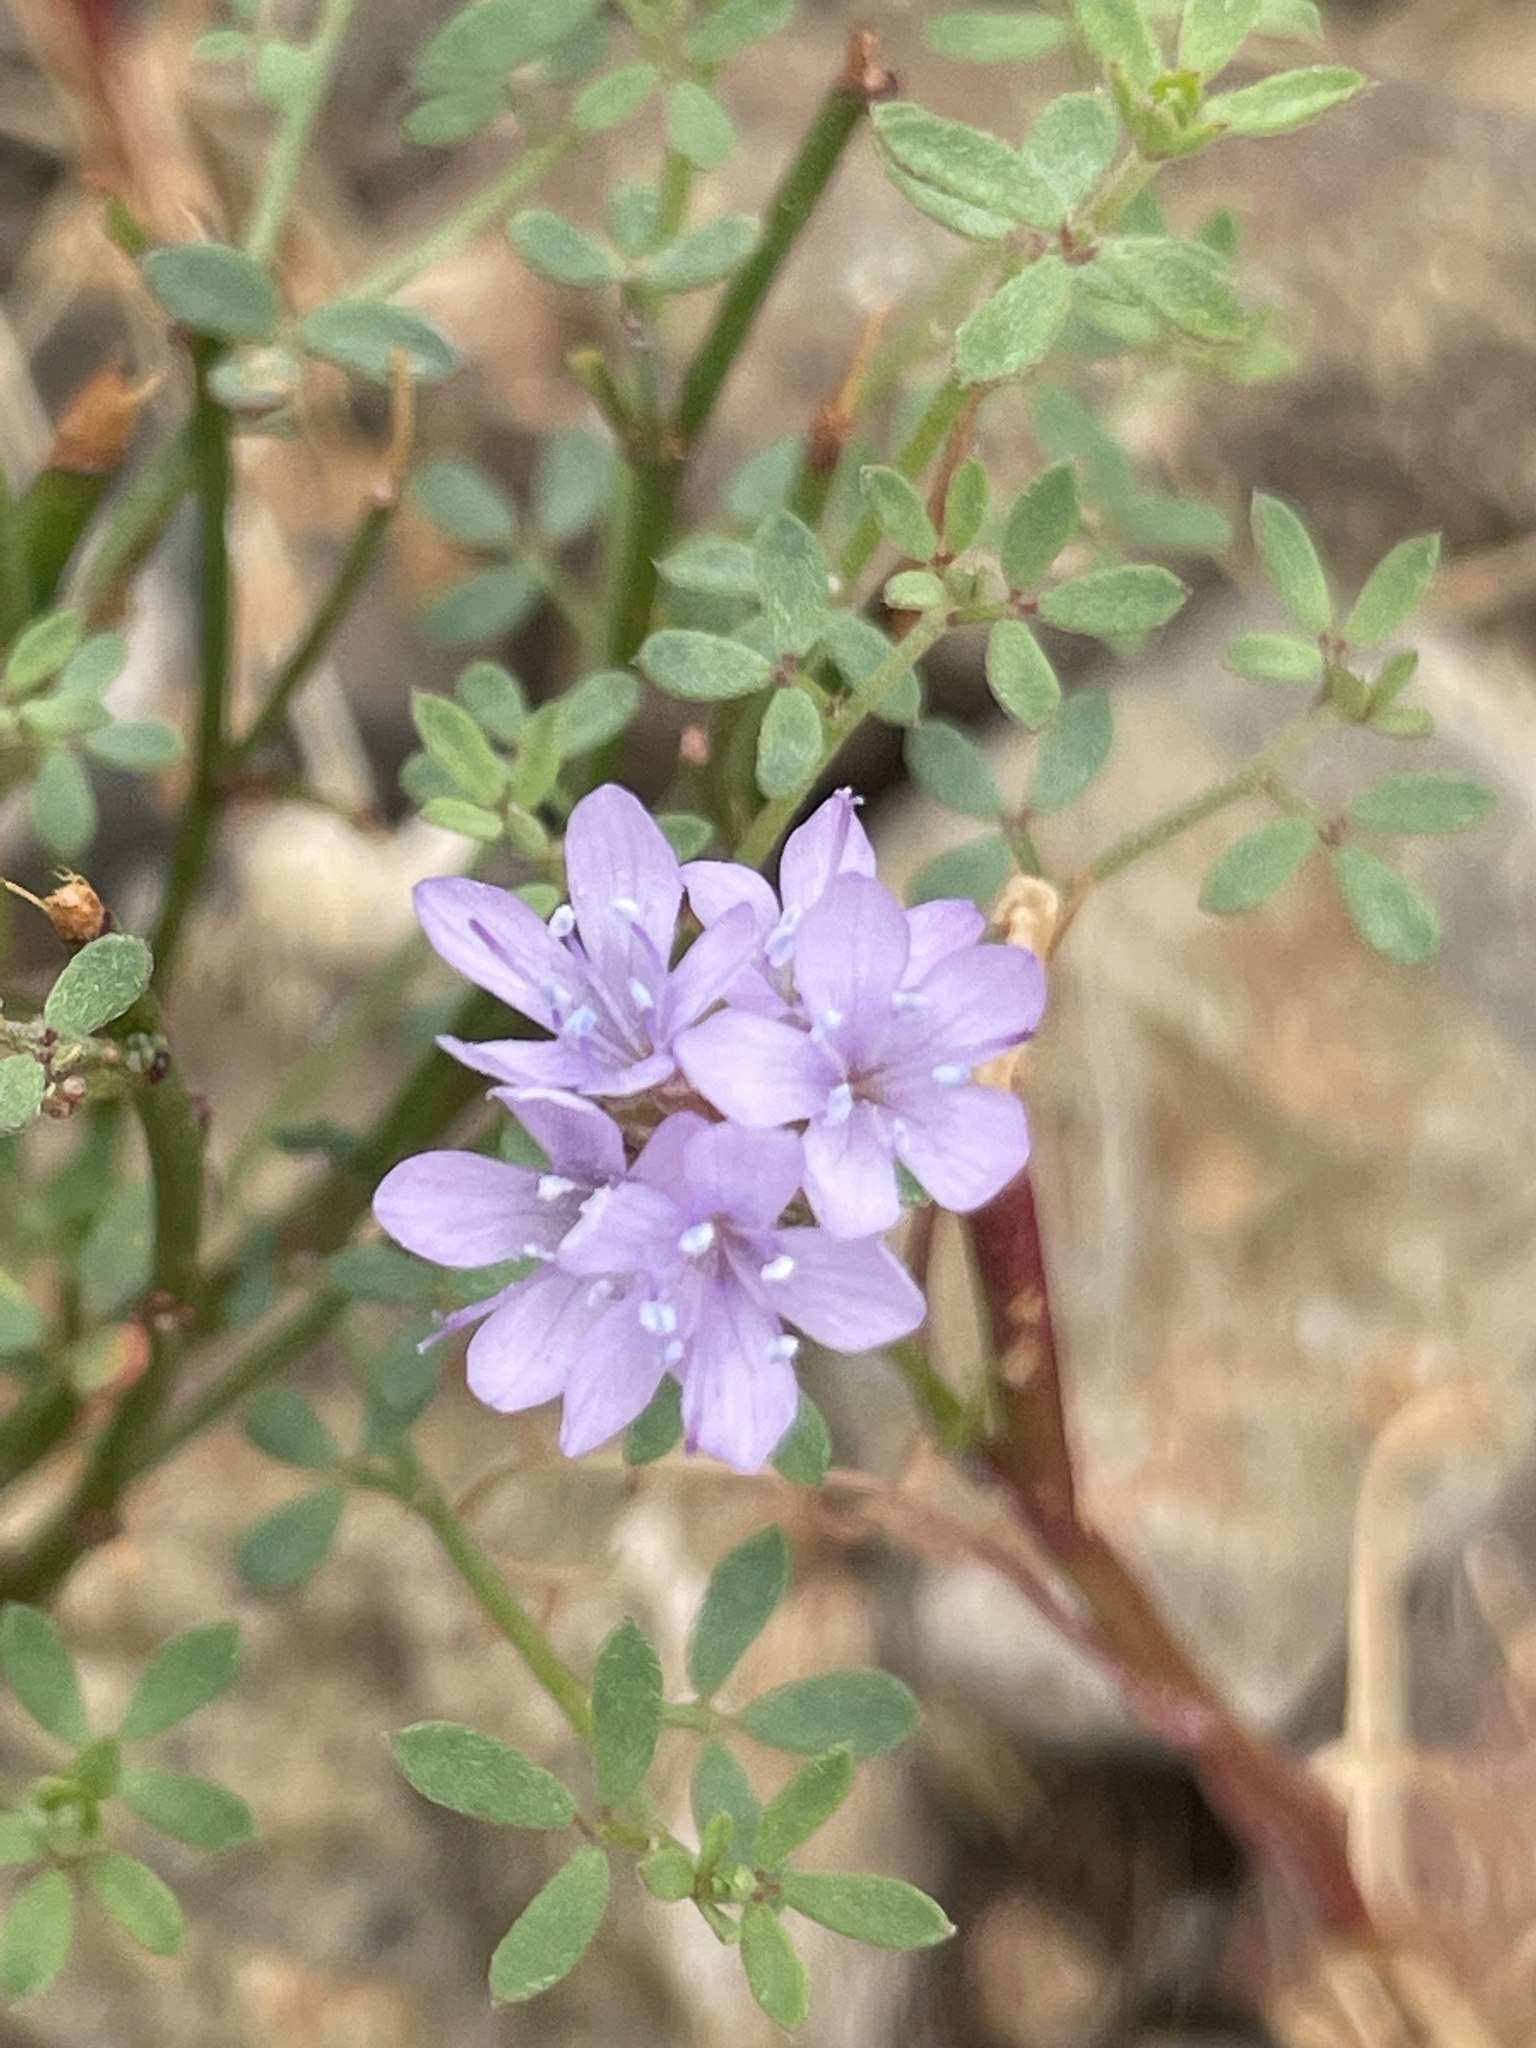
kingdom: Plantae
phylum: Tracheophyta
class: Magnoliopsida
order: Ericales
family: Polemoniaceae
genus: Gilia
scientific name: Gilia capitata
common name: Bluehead gilia
